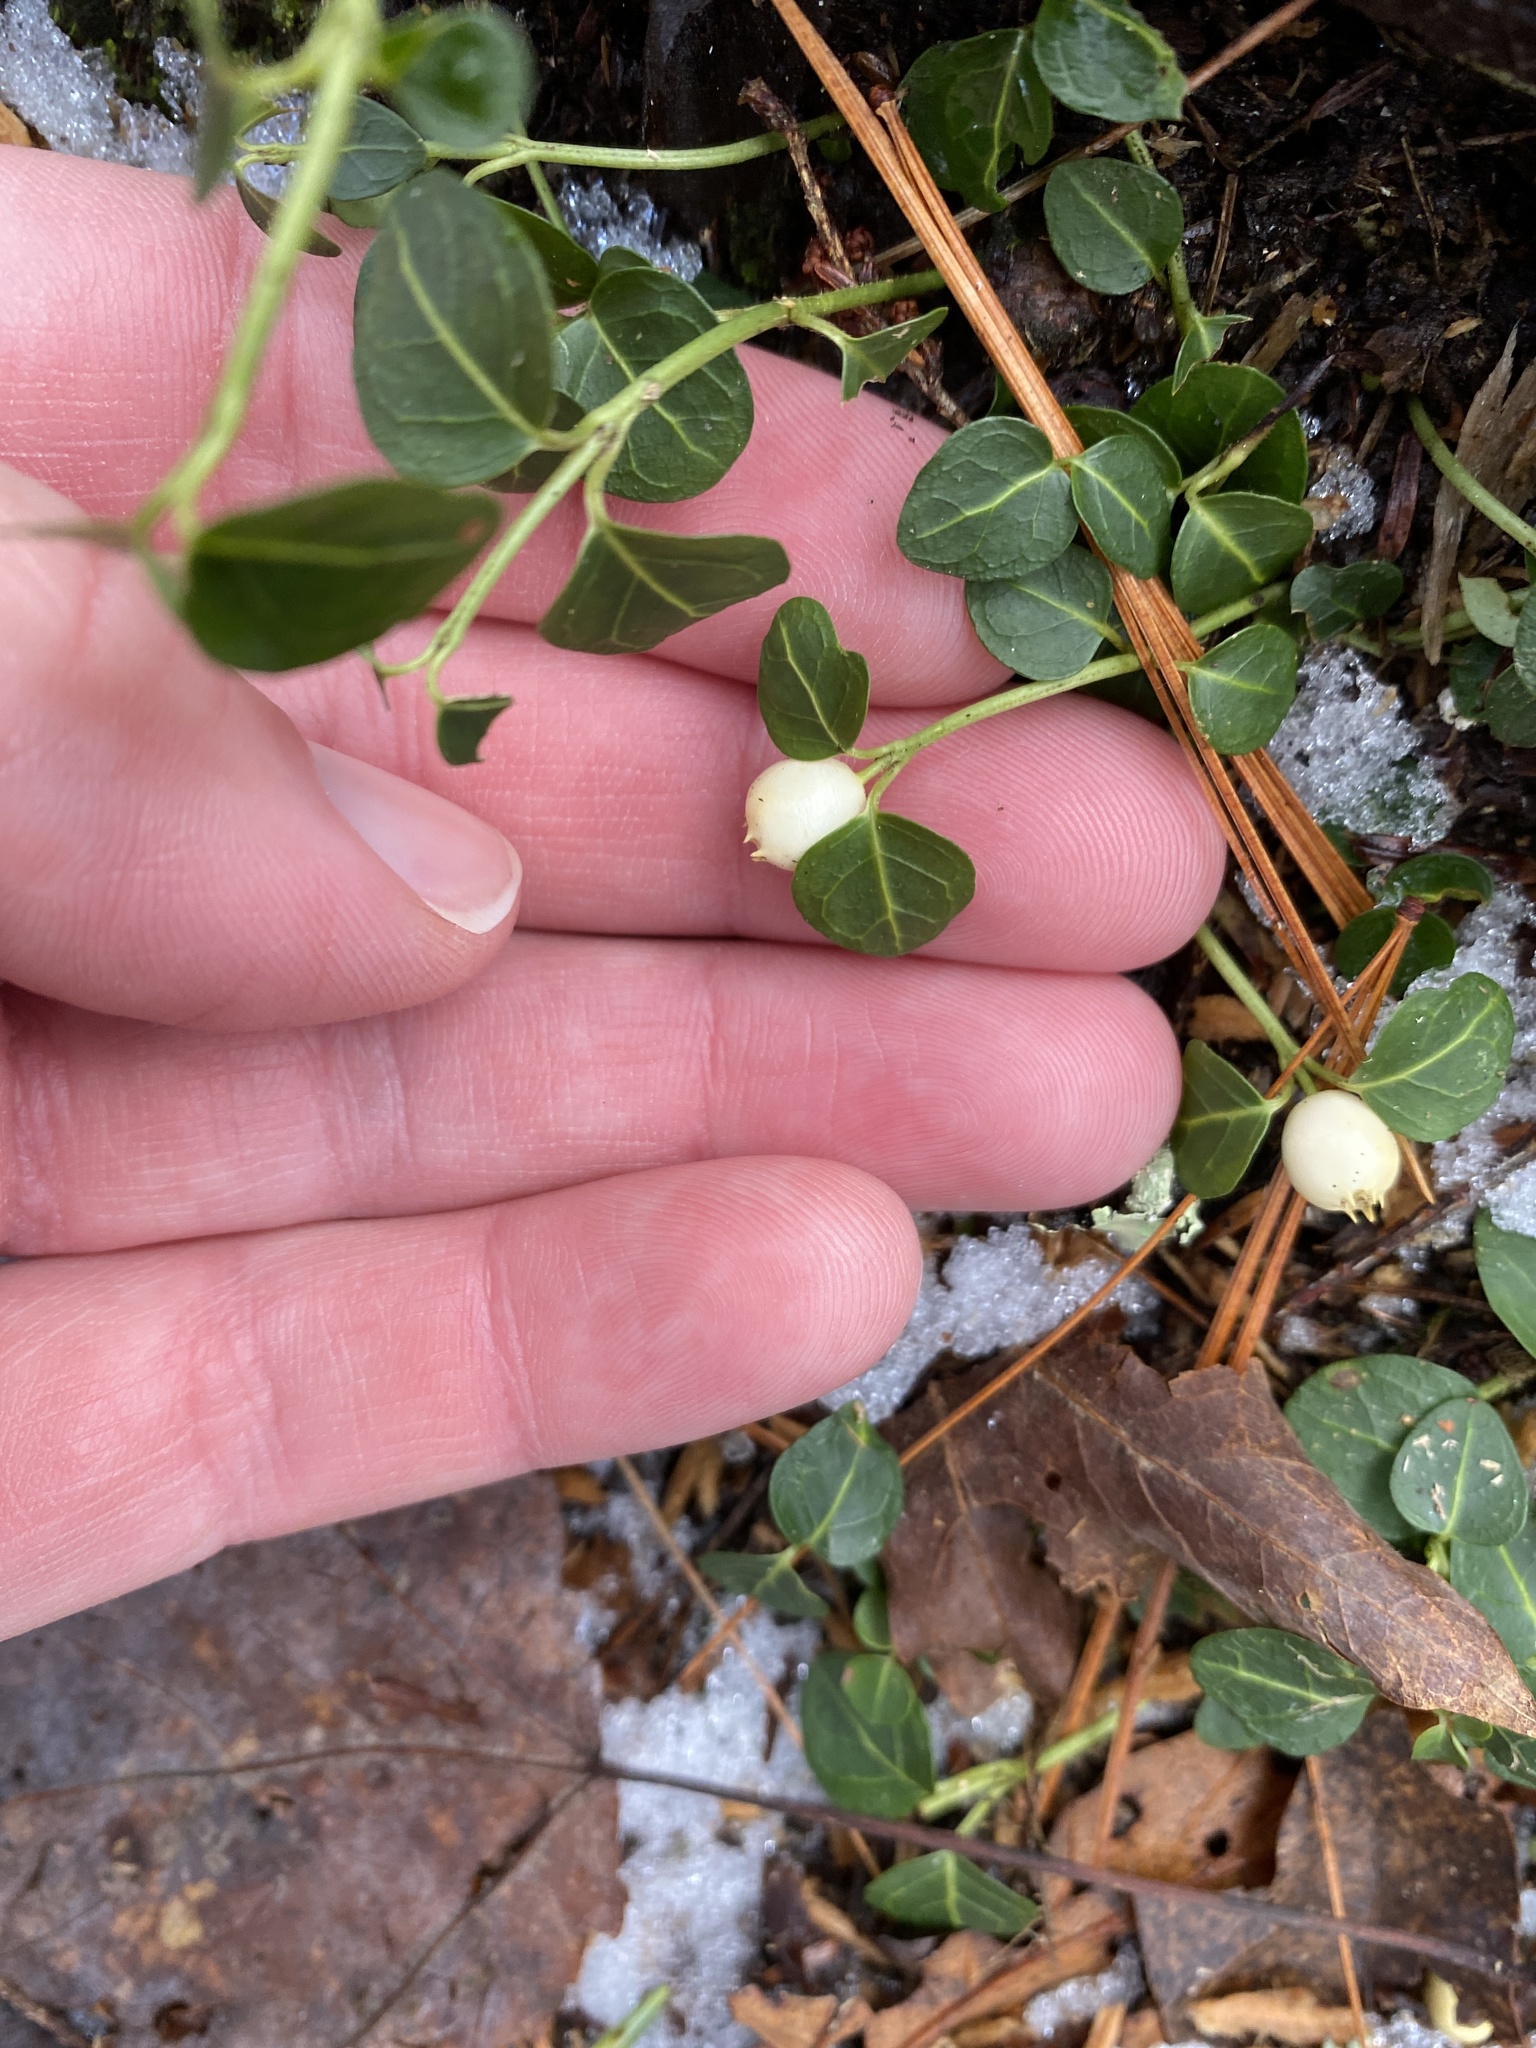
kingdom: Plantae
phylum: Tracheophyta
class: Magnoliopsida
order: Gentianales
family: Rubiaceae
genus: Mitchella
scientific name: Mitchella repens
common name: Partridge-berry
